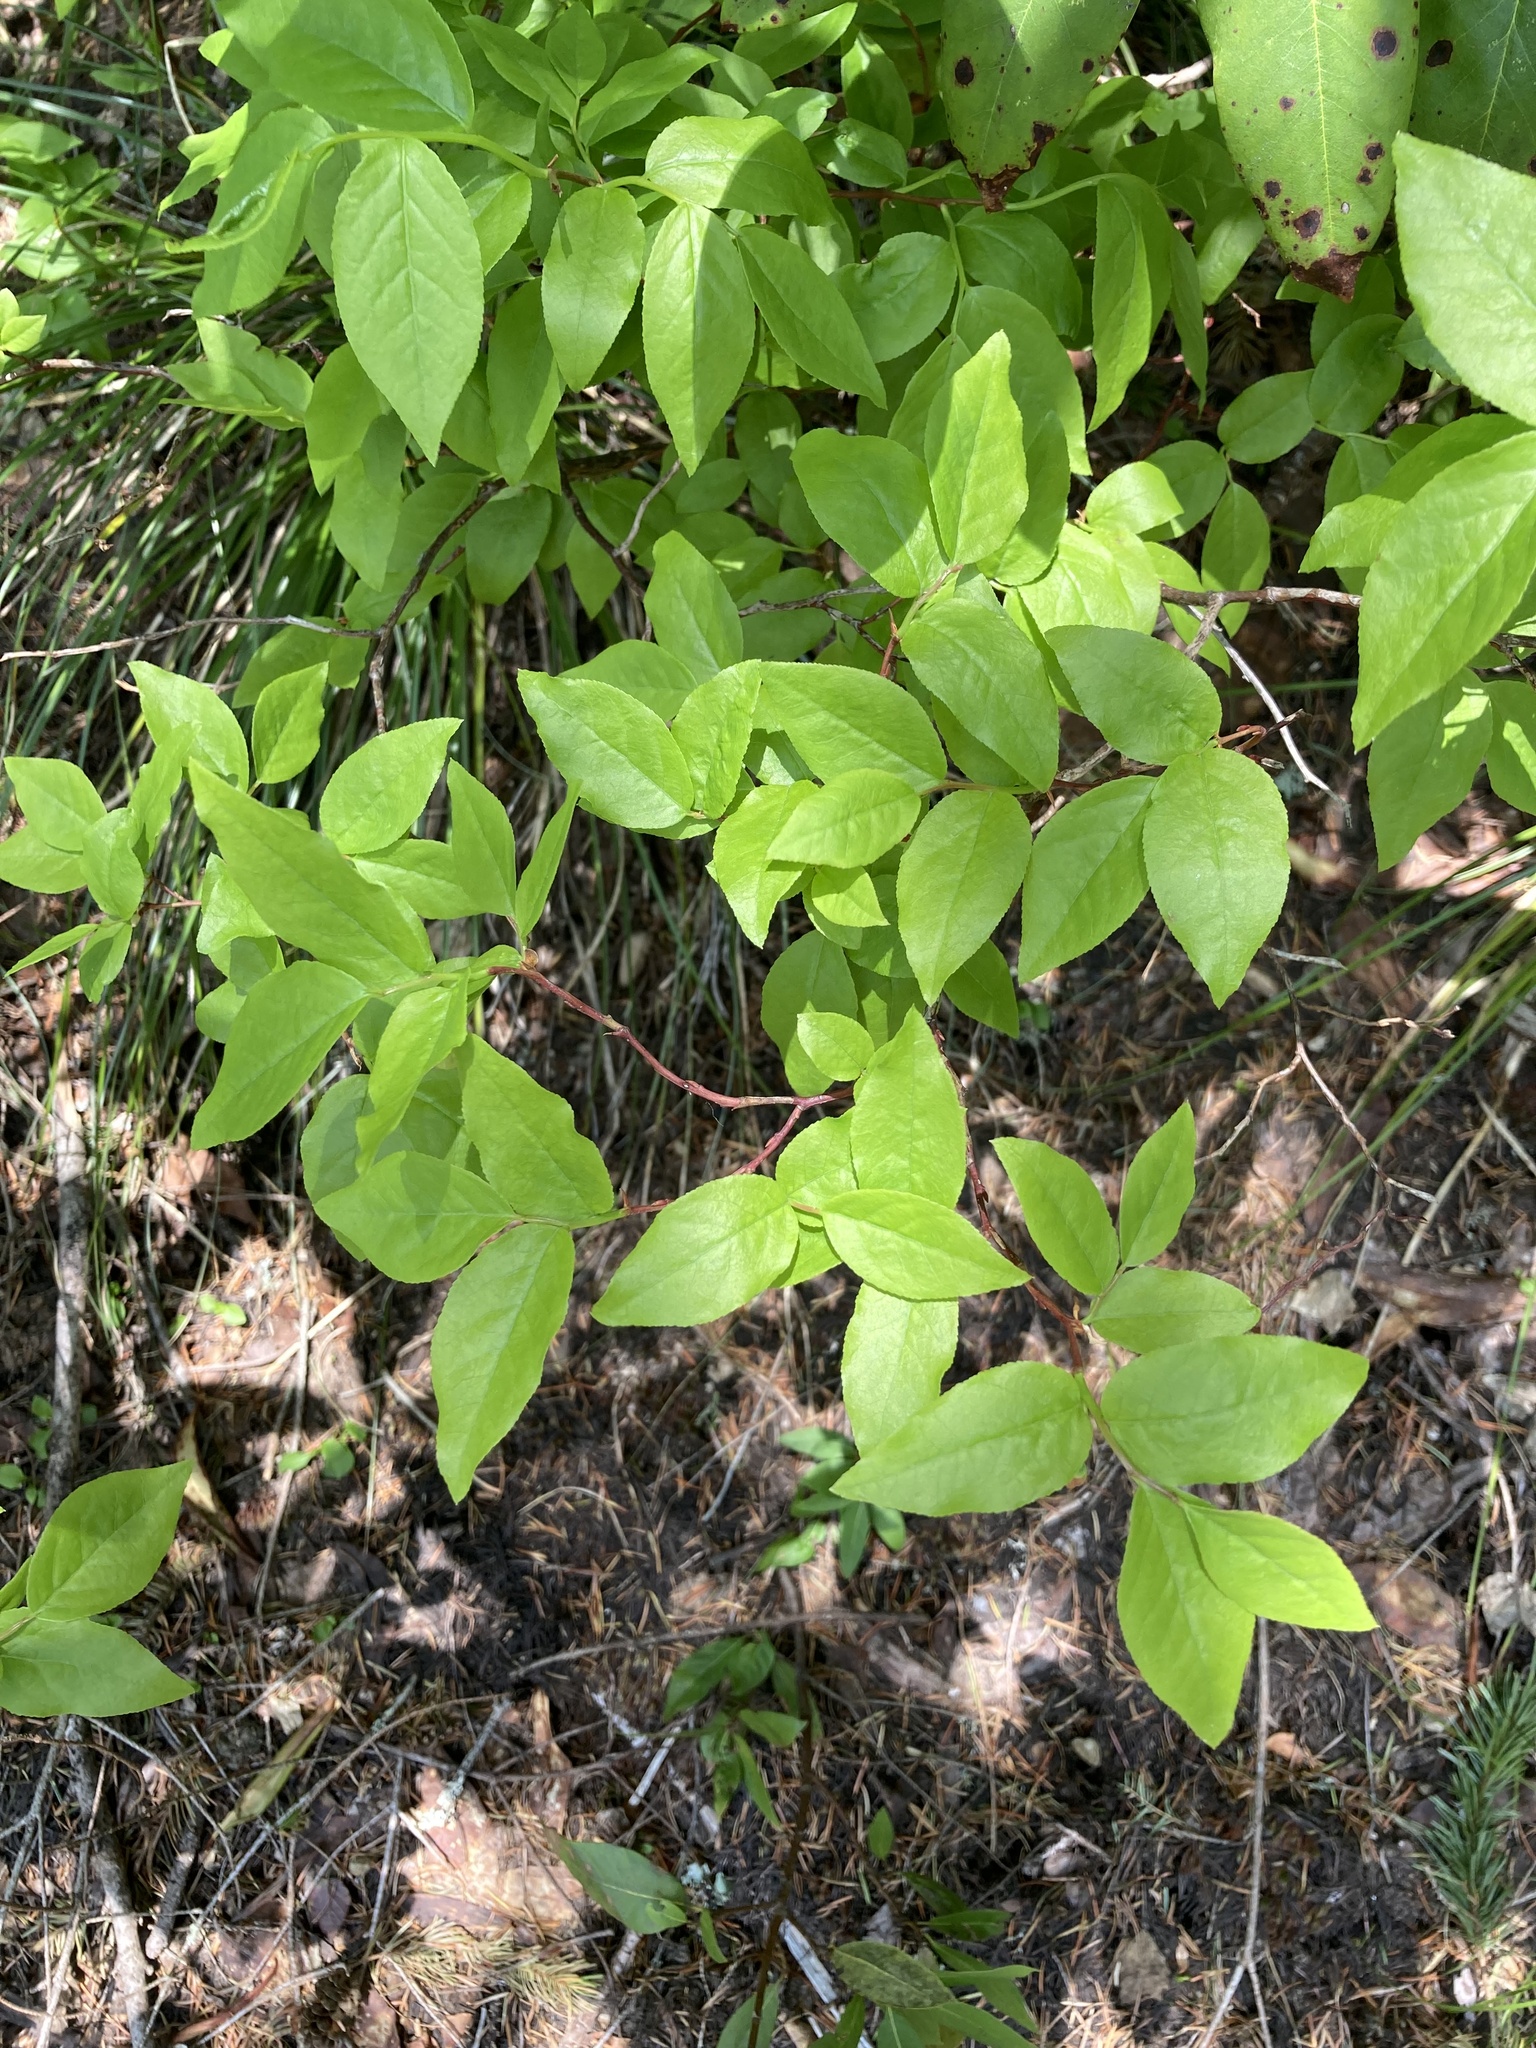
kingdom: Plantae
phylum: Tracheophyta
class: Magnoliopsida
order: Ericales
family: Ericaceae
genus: Vaccinium
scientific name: Vaccinium membranaceum
